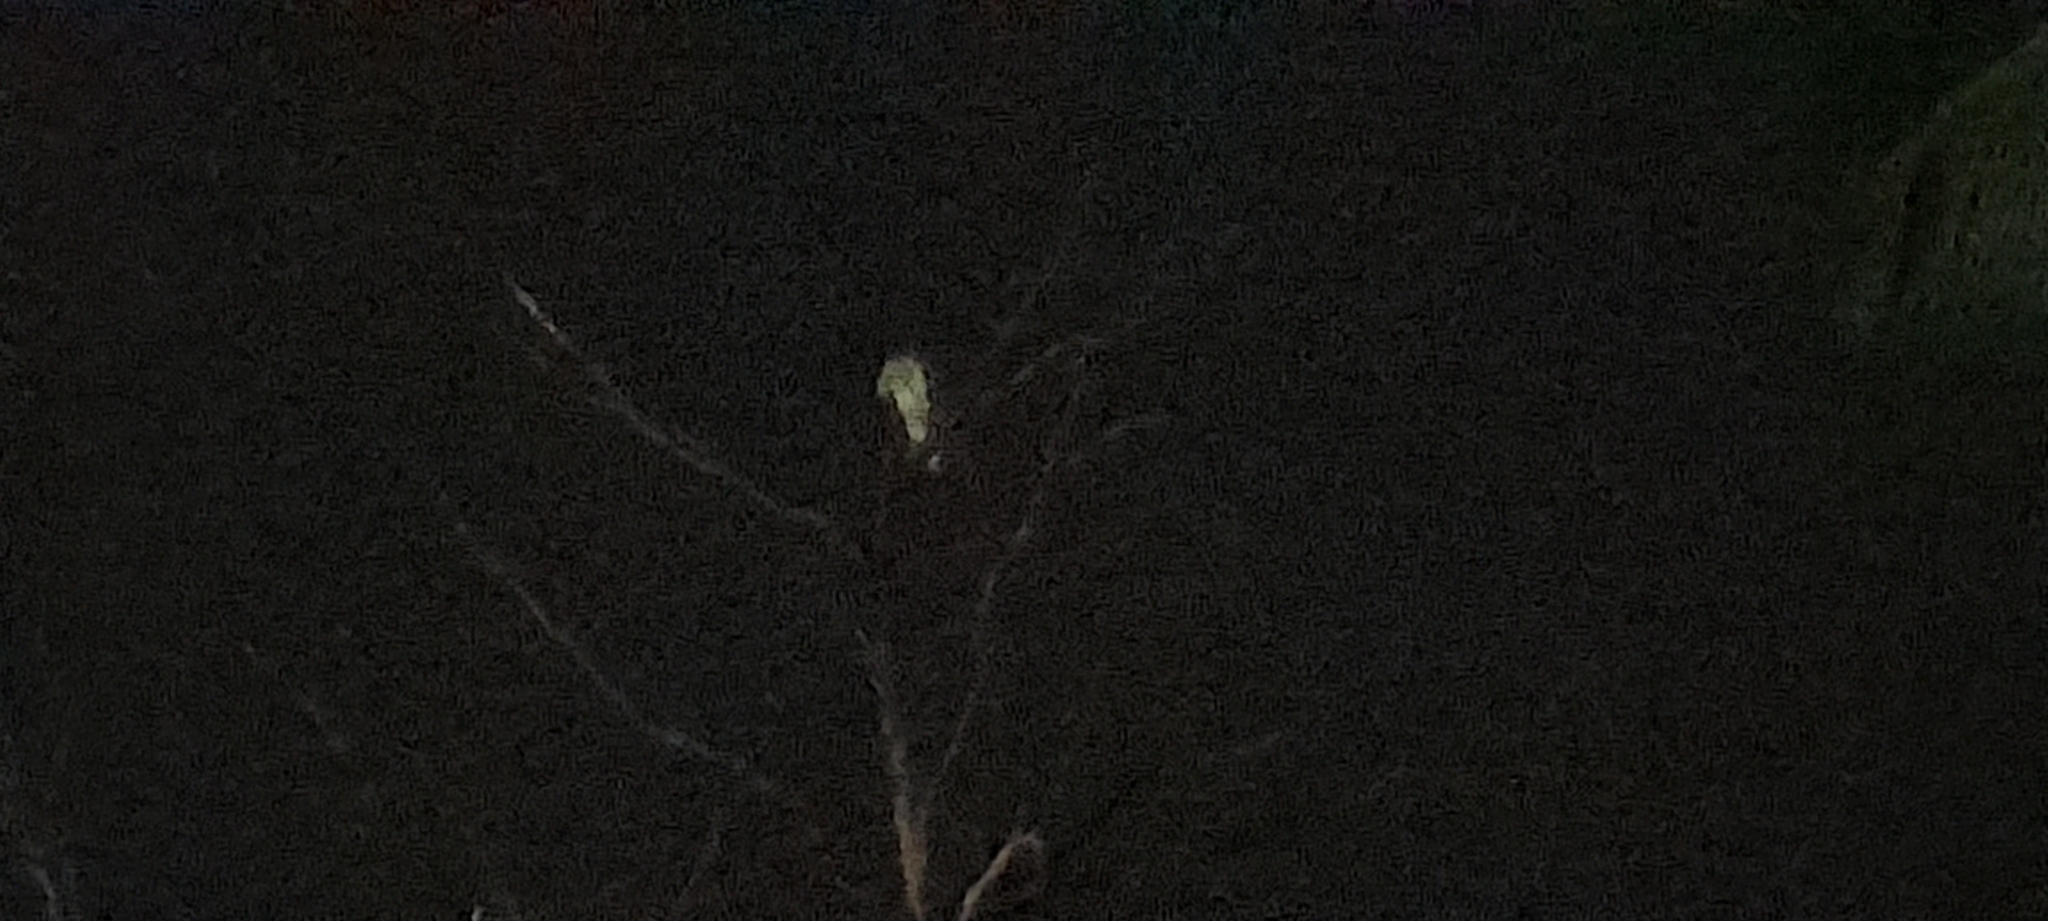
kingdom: Animalia
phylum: Chordata
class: Aves
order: Strigiformes
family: Tytonidae
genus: Tyto
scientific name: Tyto alba
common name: Barn owl
